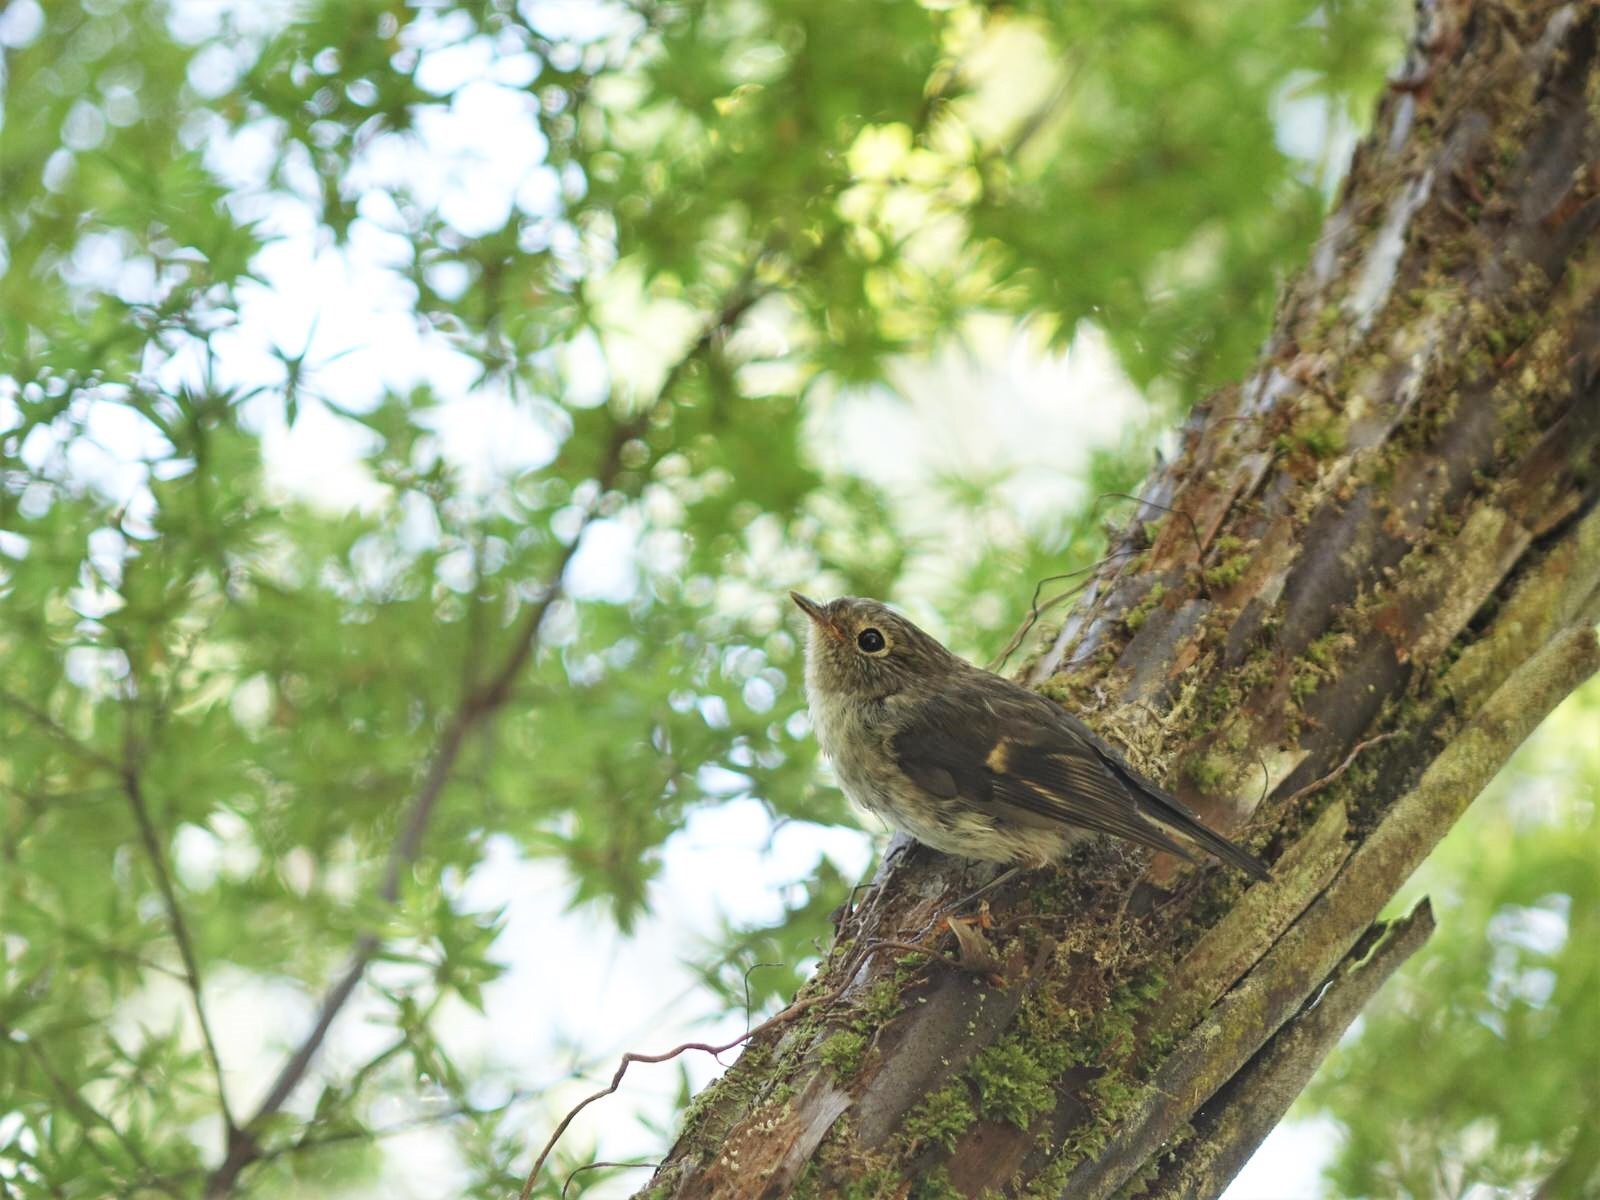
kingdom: Animalia
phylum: Chordata
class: Aves
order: Passeriformes
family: Petroicidae
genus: Petroica
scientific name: Petroica macrocephala
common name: Tomtit
